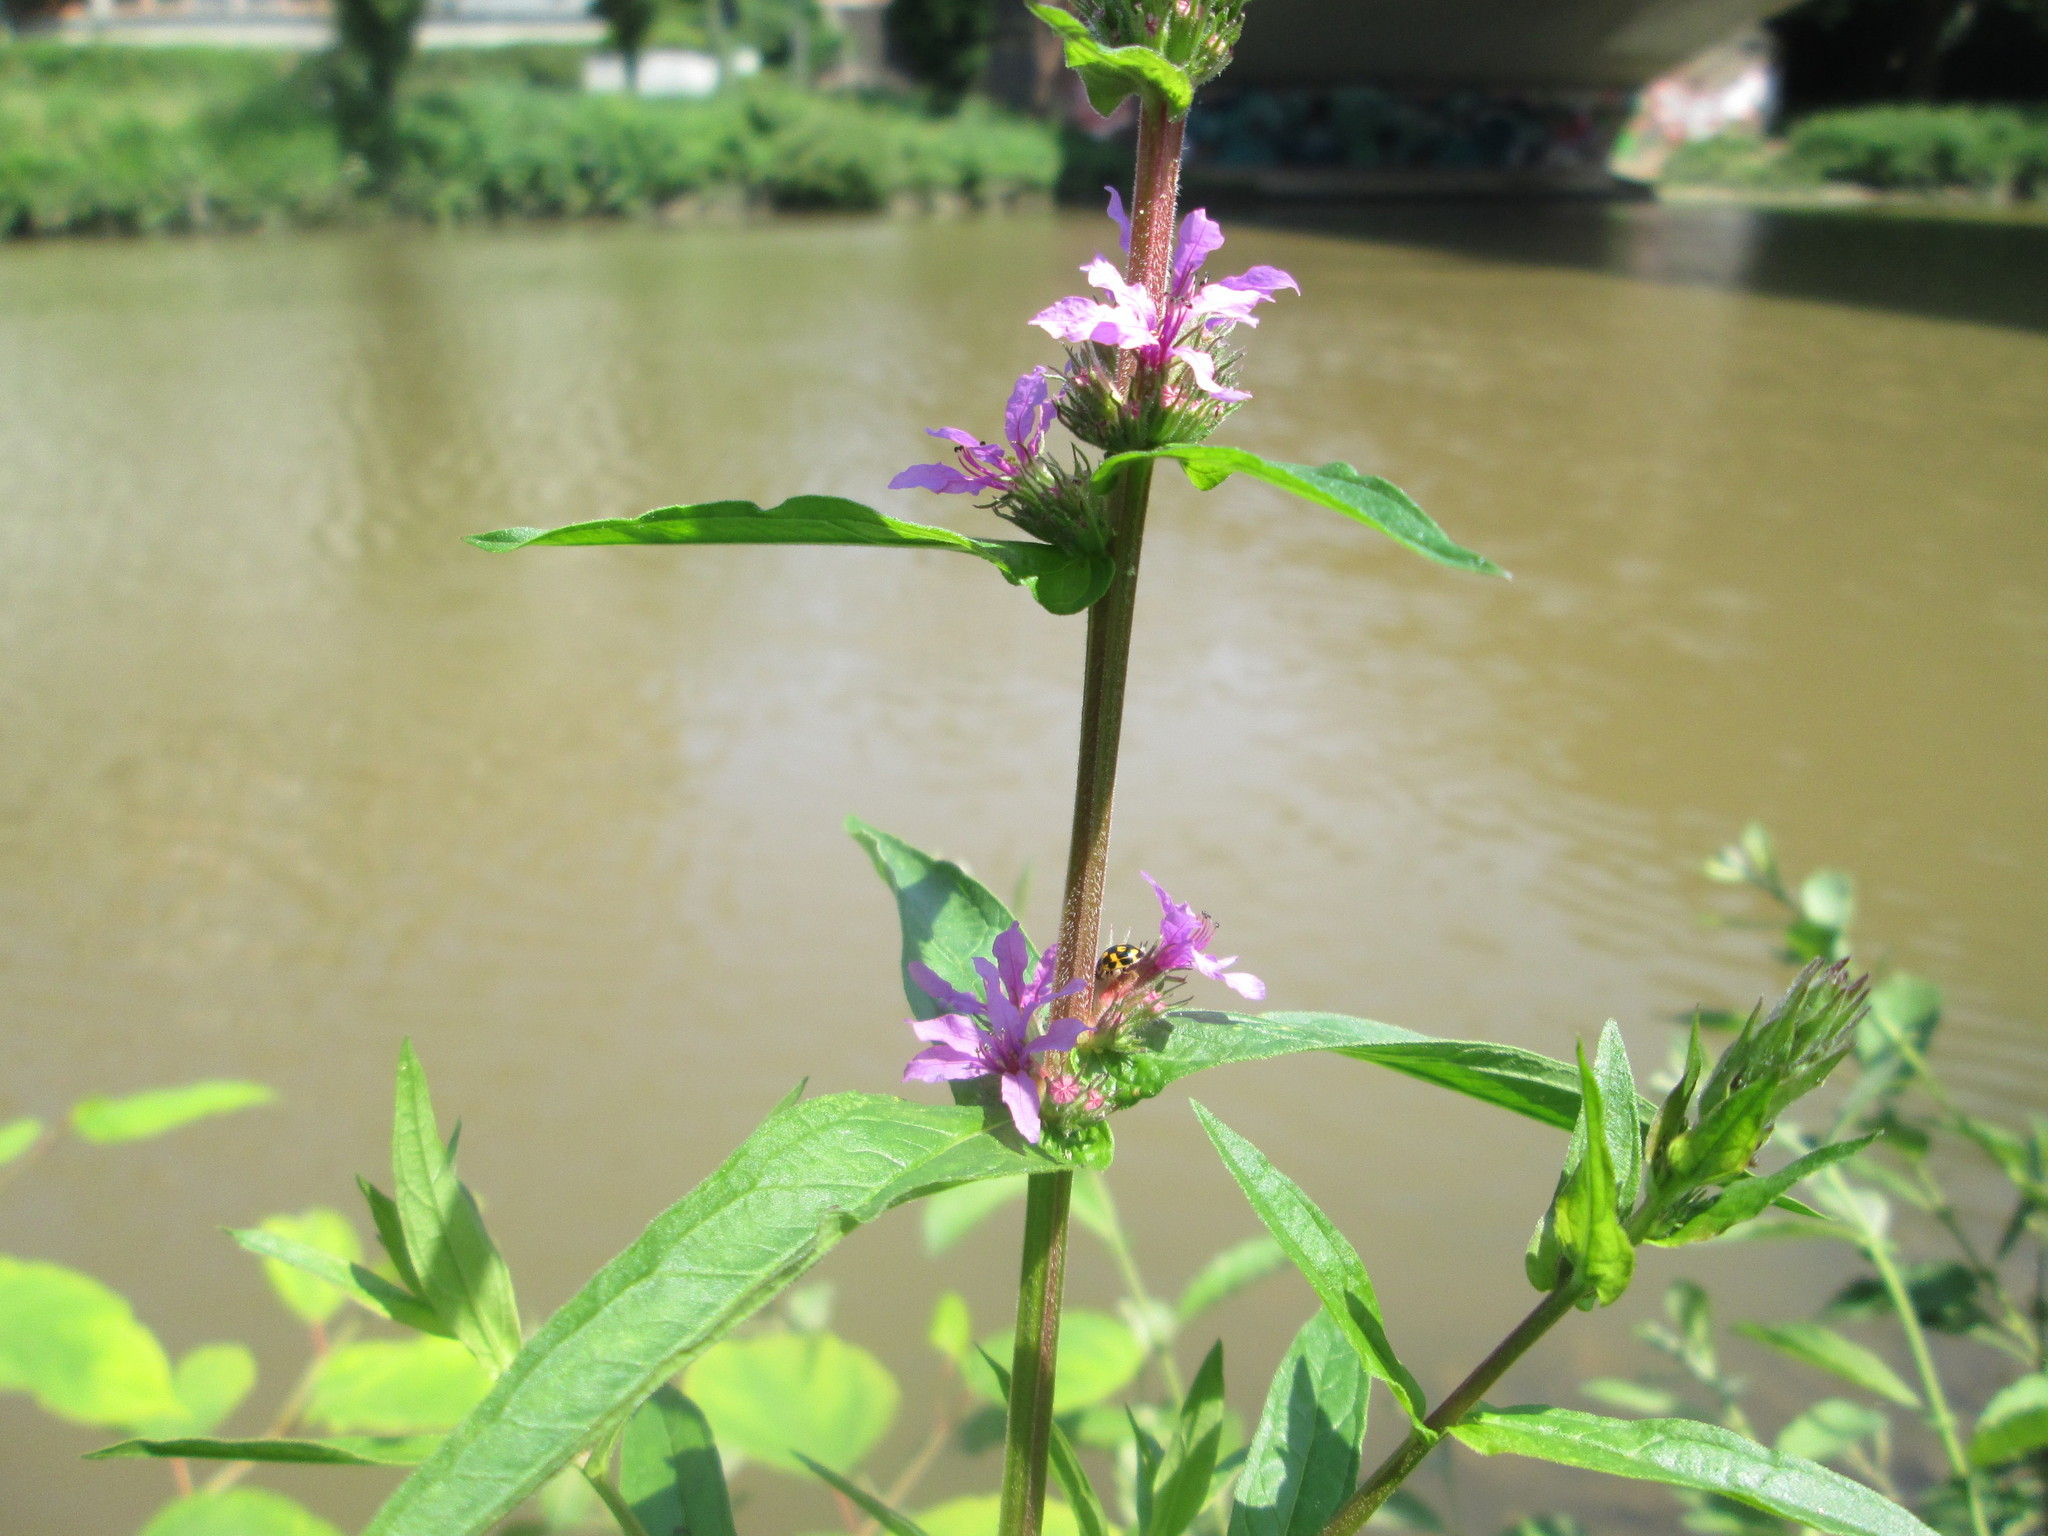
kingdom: Plantae
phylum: Tracheophyta
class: Magnoliopsida
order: Myrtales
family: Lythraceae
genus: Lythrum
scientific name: Lythrum salicaria
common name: Purple loosestrife
